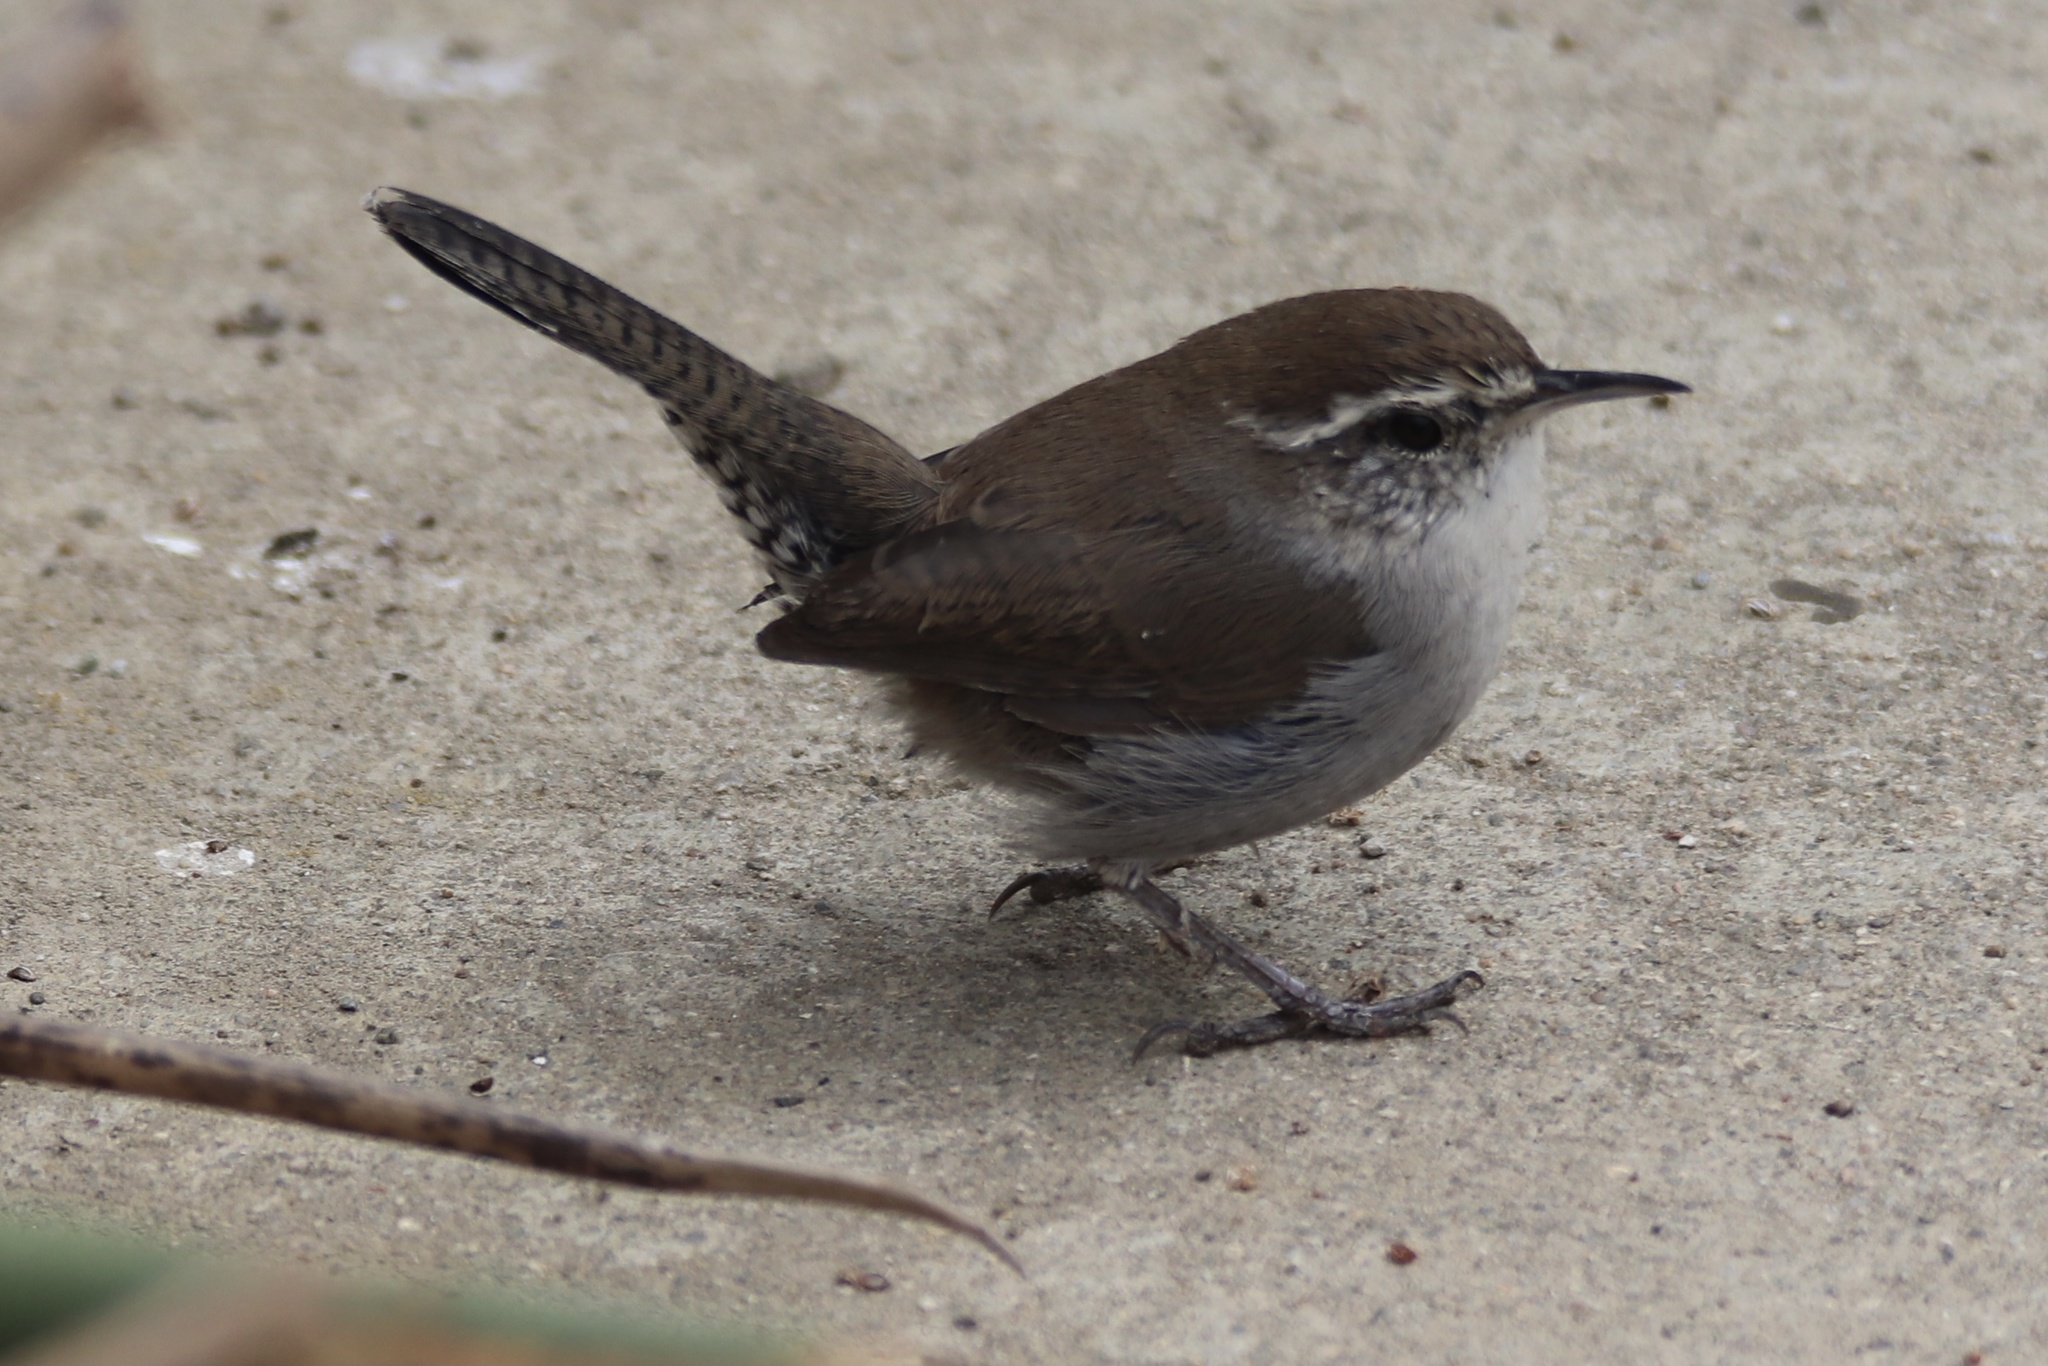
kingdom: Animalia
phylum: Chordata
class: Aves
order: Passeriformes
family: Troglodytidae
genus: Thryomanes
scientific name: Thryomanes bewickii
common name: Bewick's wren
